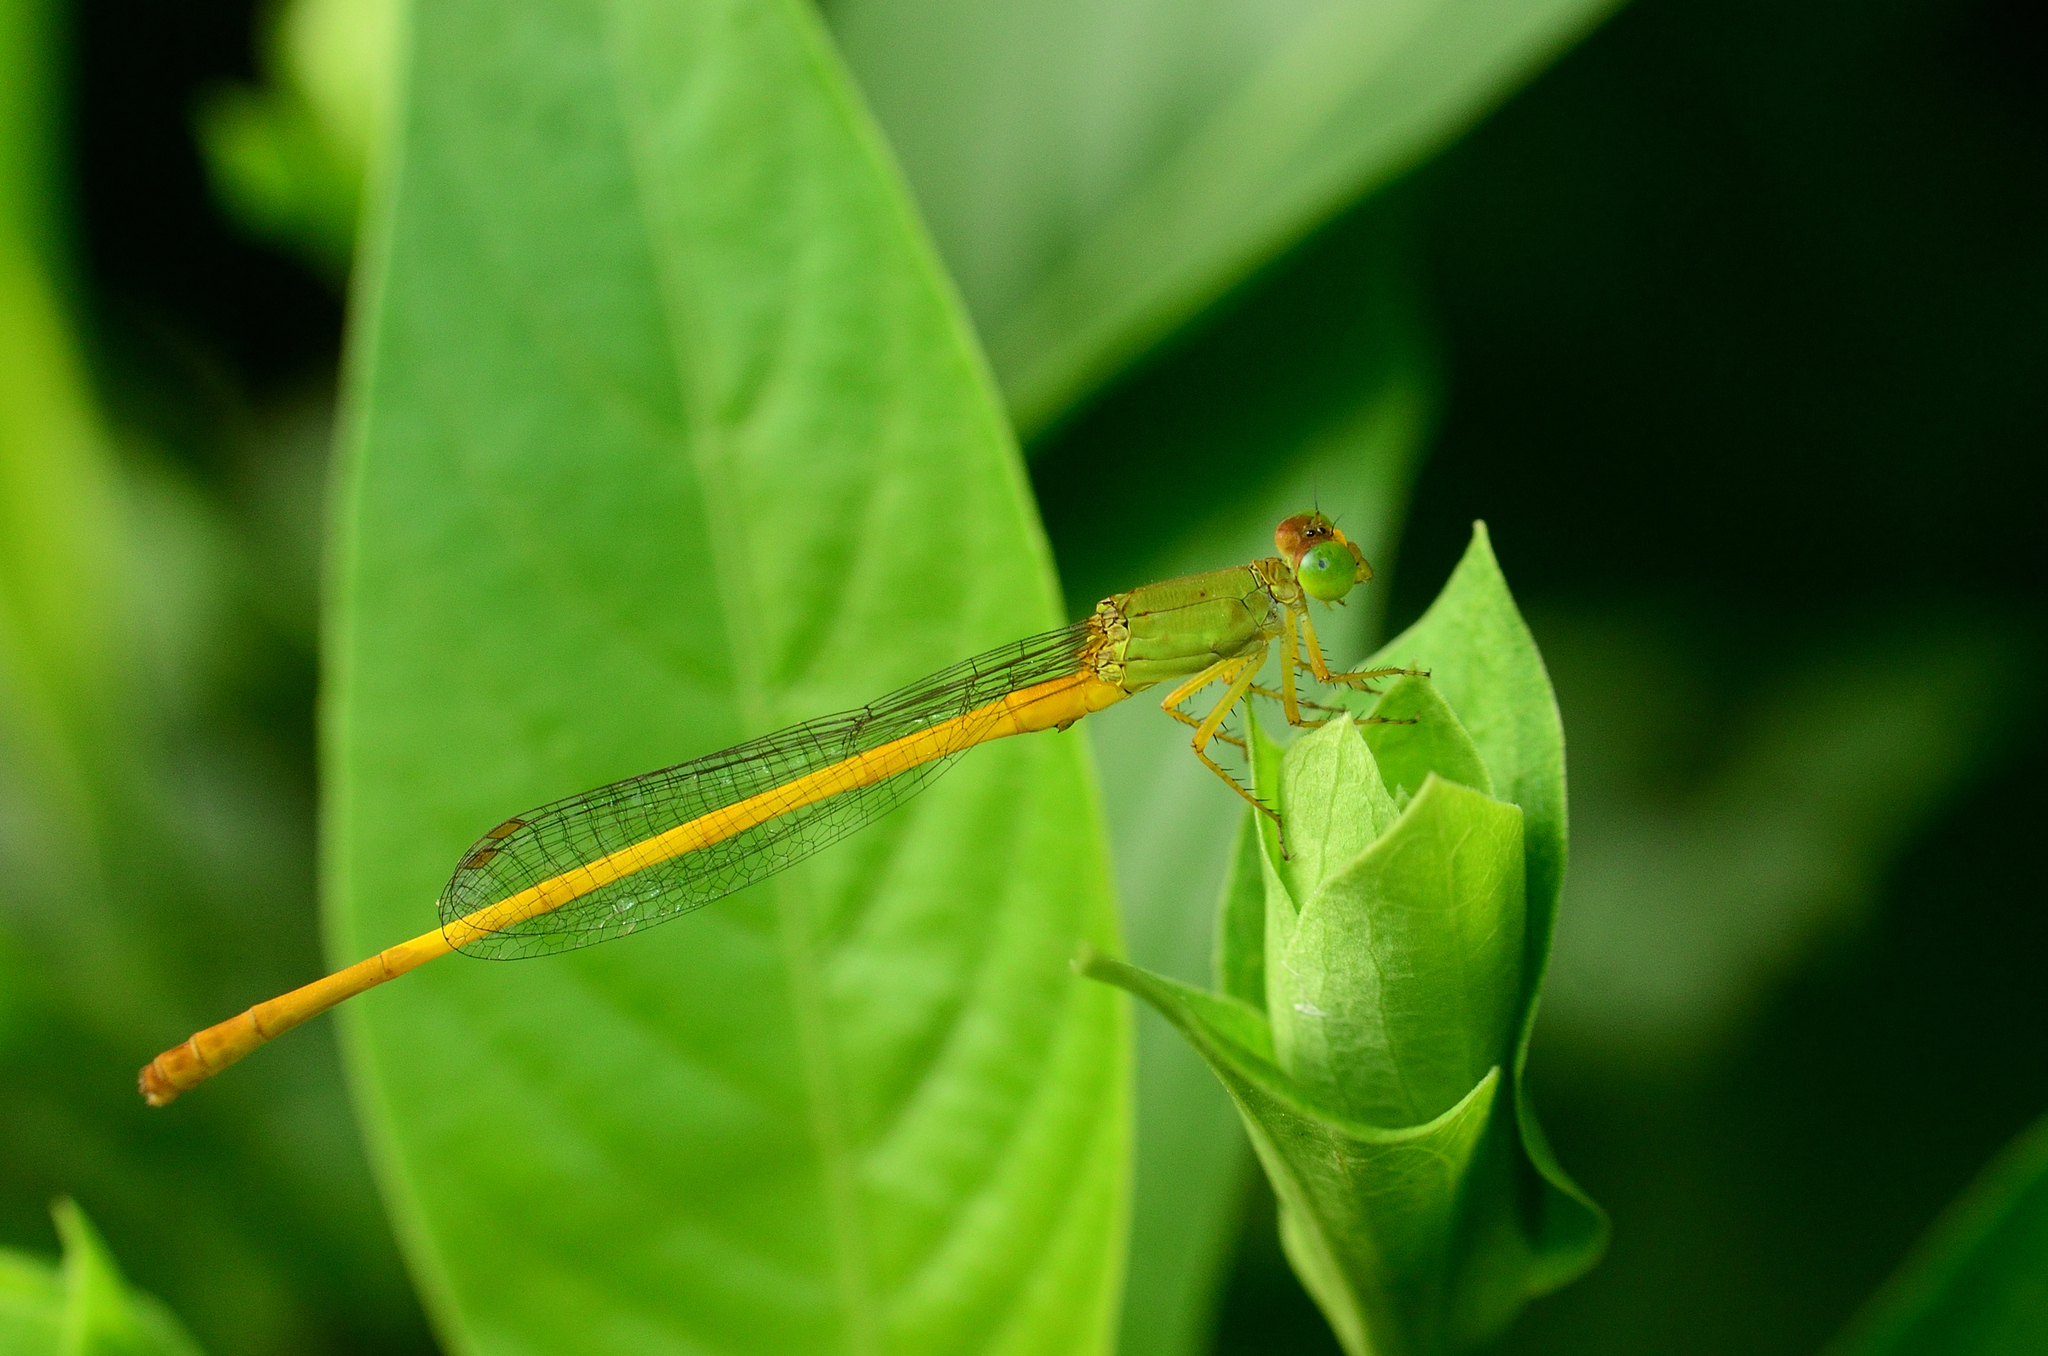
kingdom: Animalia
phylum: Arthropoda
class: Insecta
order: Odonata
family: Coenagrionidae
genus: Ceriagrion
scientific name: Ceriagrion coromandelianum
